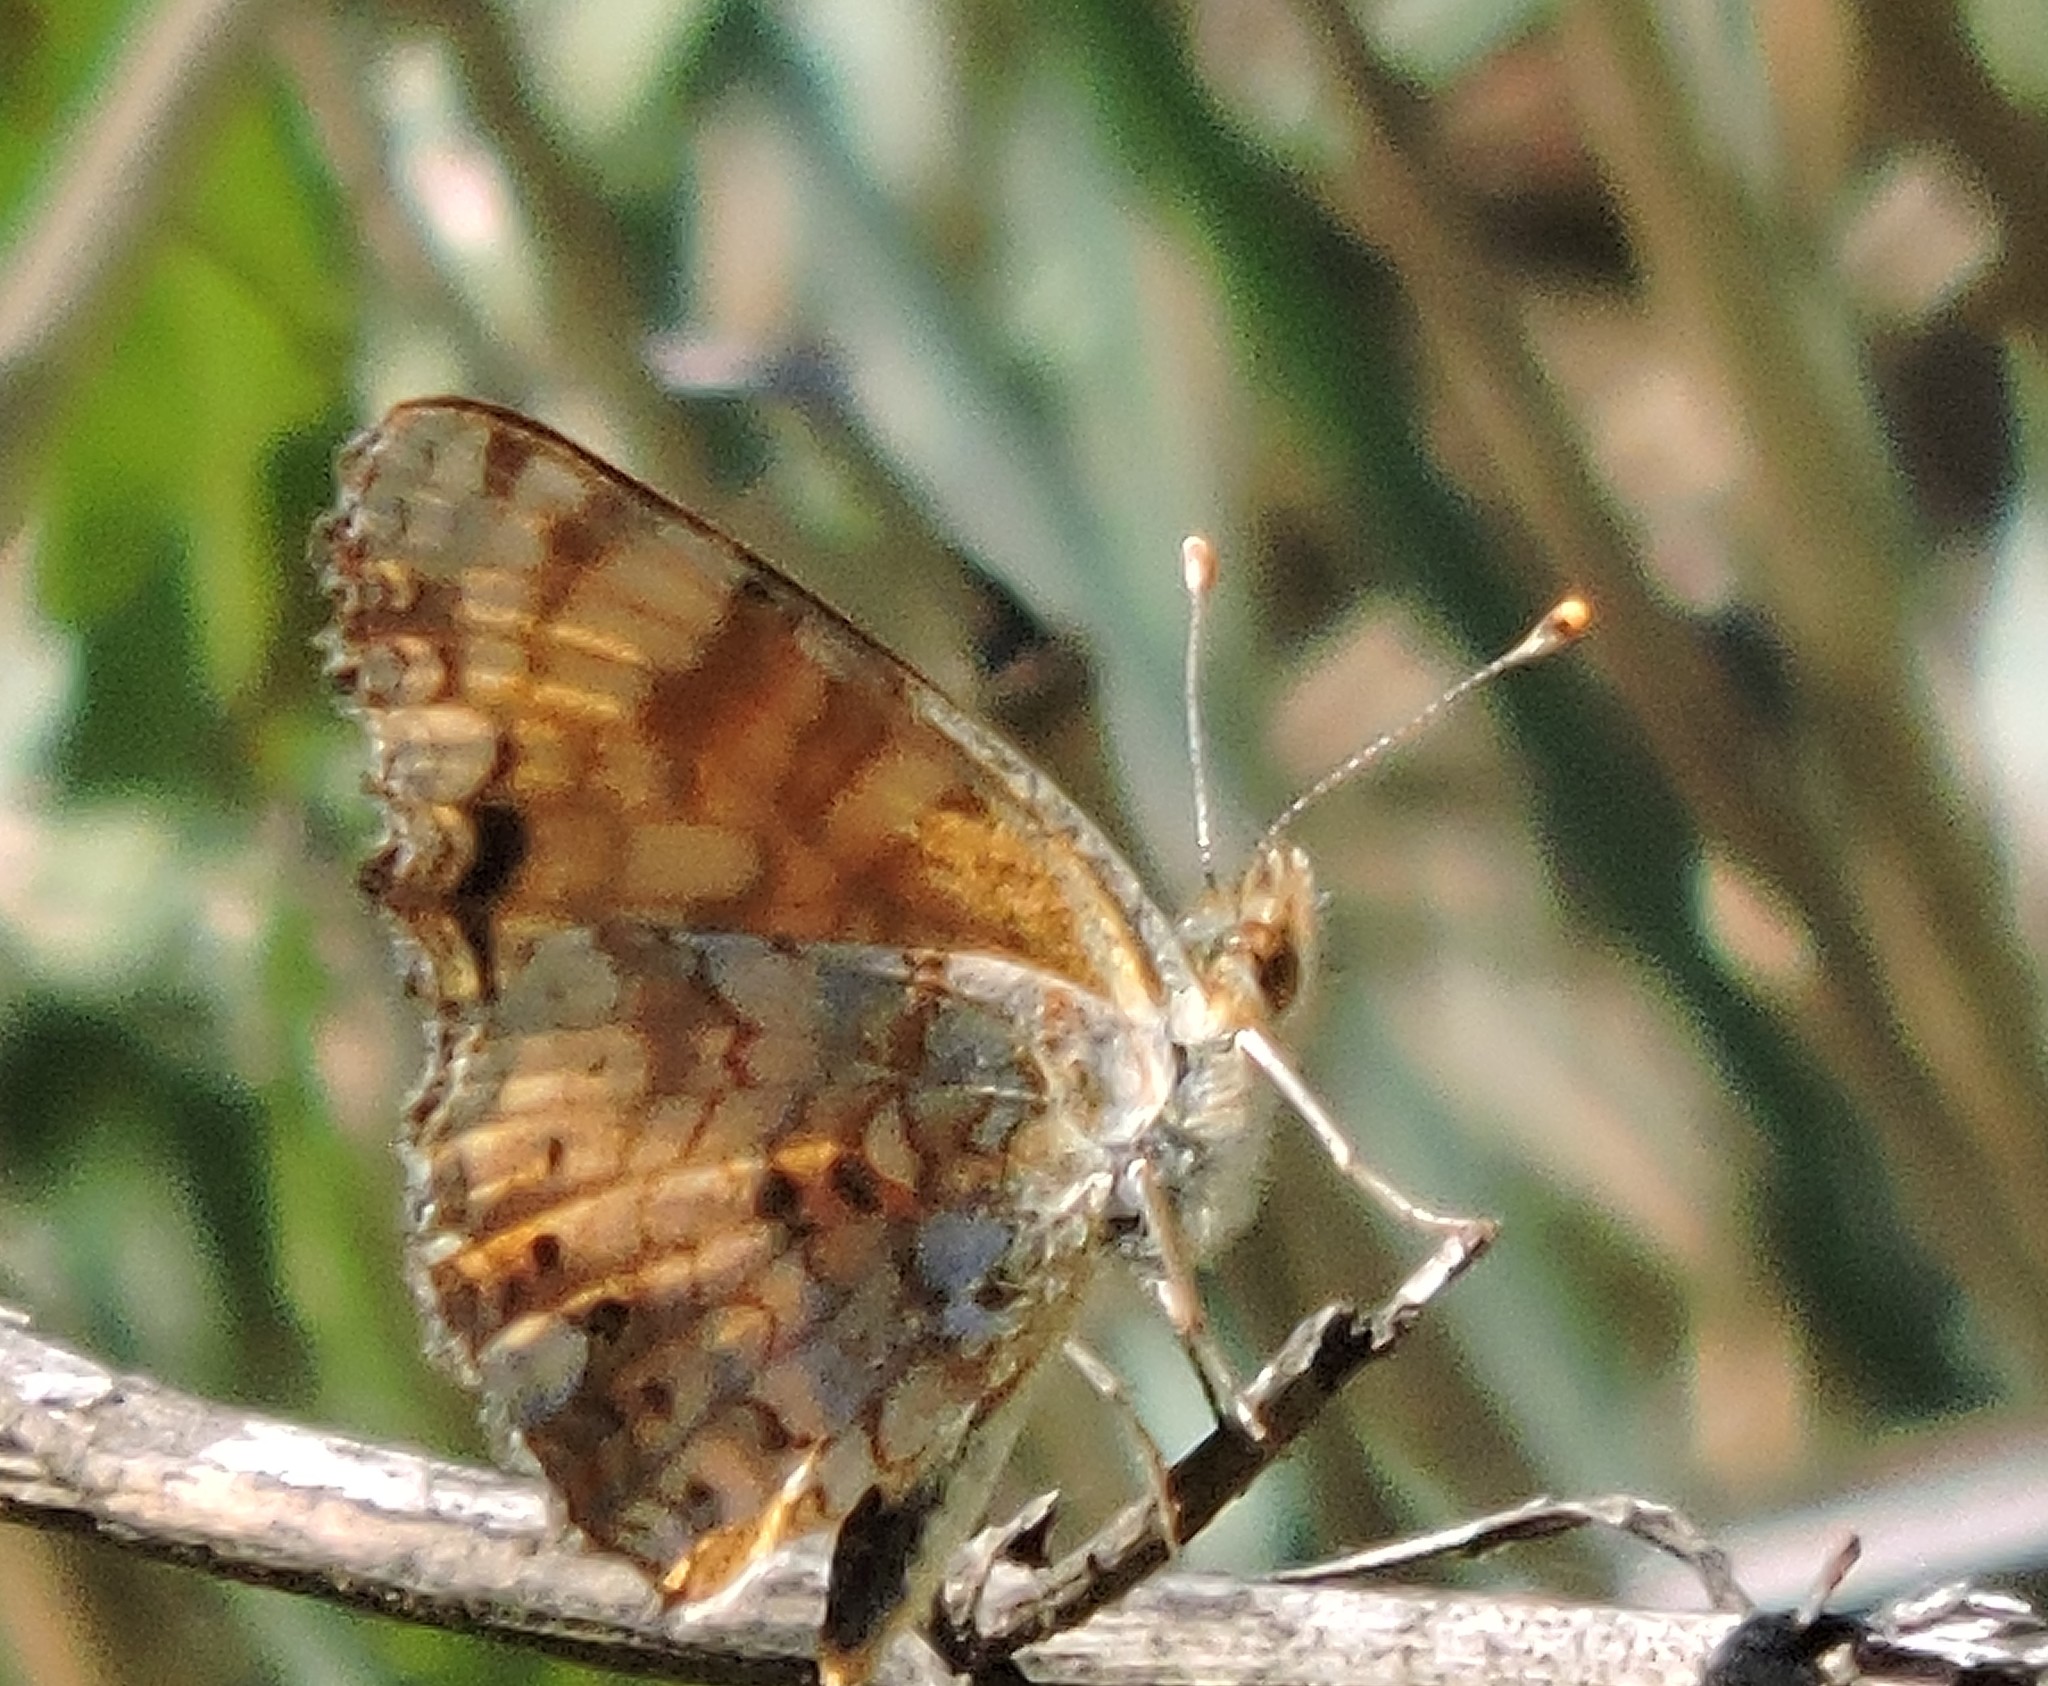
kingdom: Animalia
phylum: Arthropoda
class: Insecta
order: Lepidoptera
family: Nymphalidae
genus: Eresia
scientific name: Eresia aveyrona
